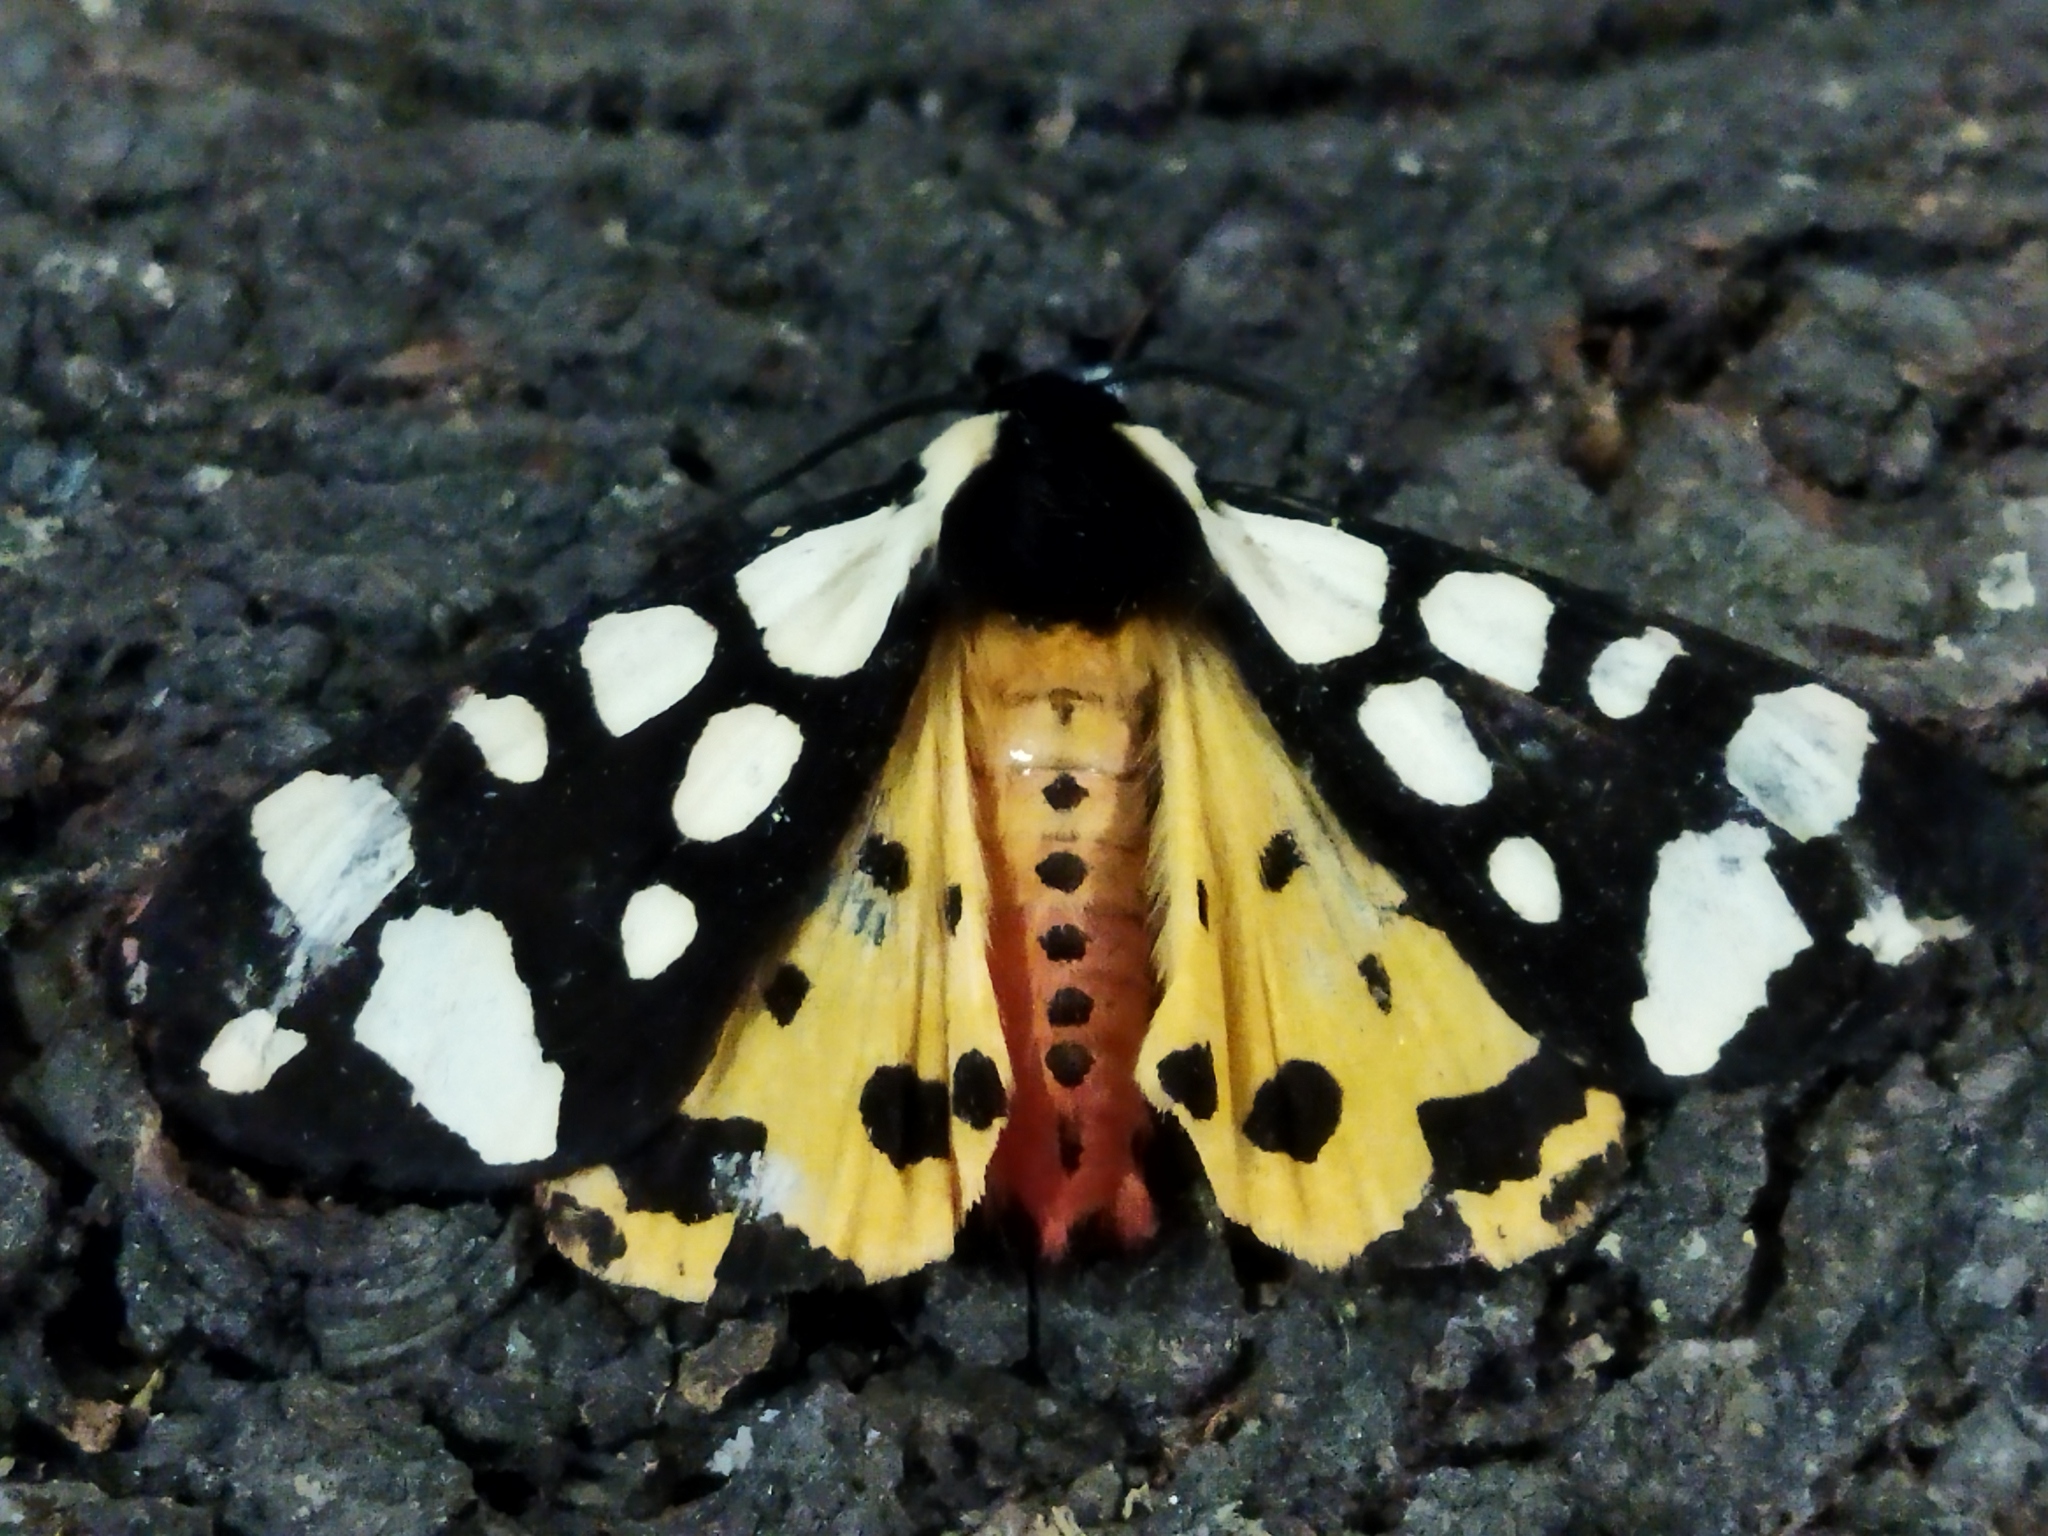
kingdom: Animalia
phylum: Arthropoda
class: Insecta
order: Lepidoptera
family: Erebidae
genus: Epicallia
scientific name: Epicallia villica
